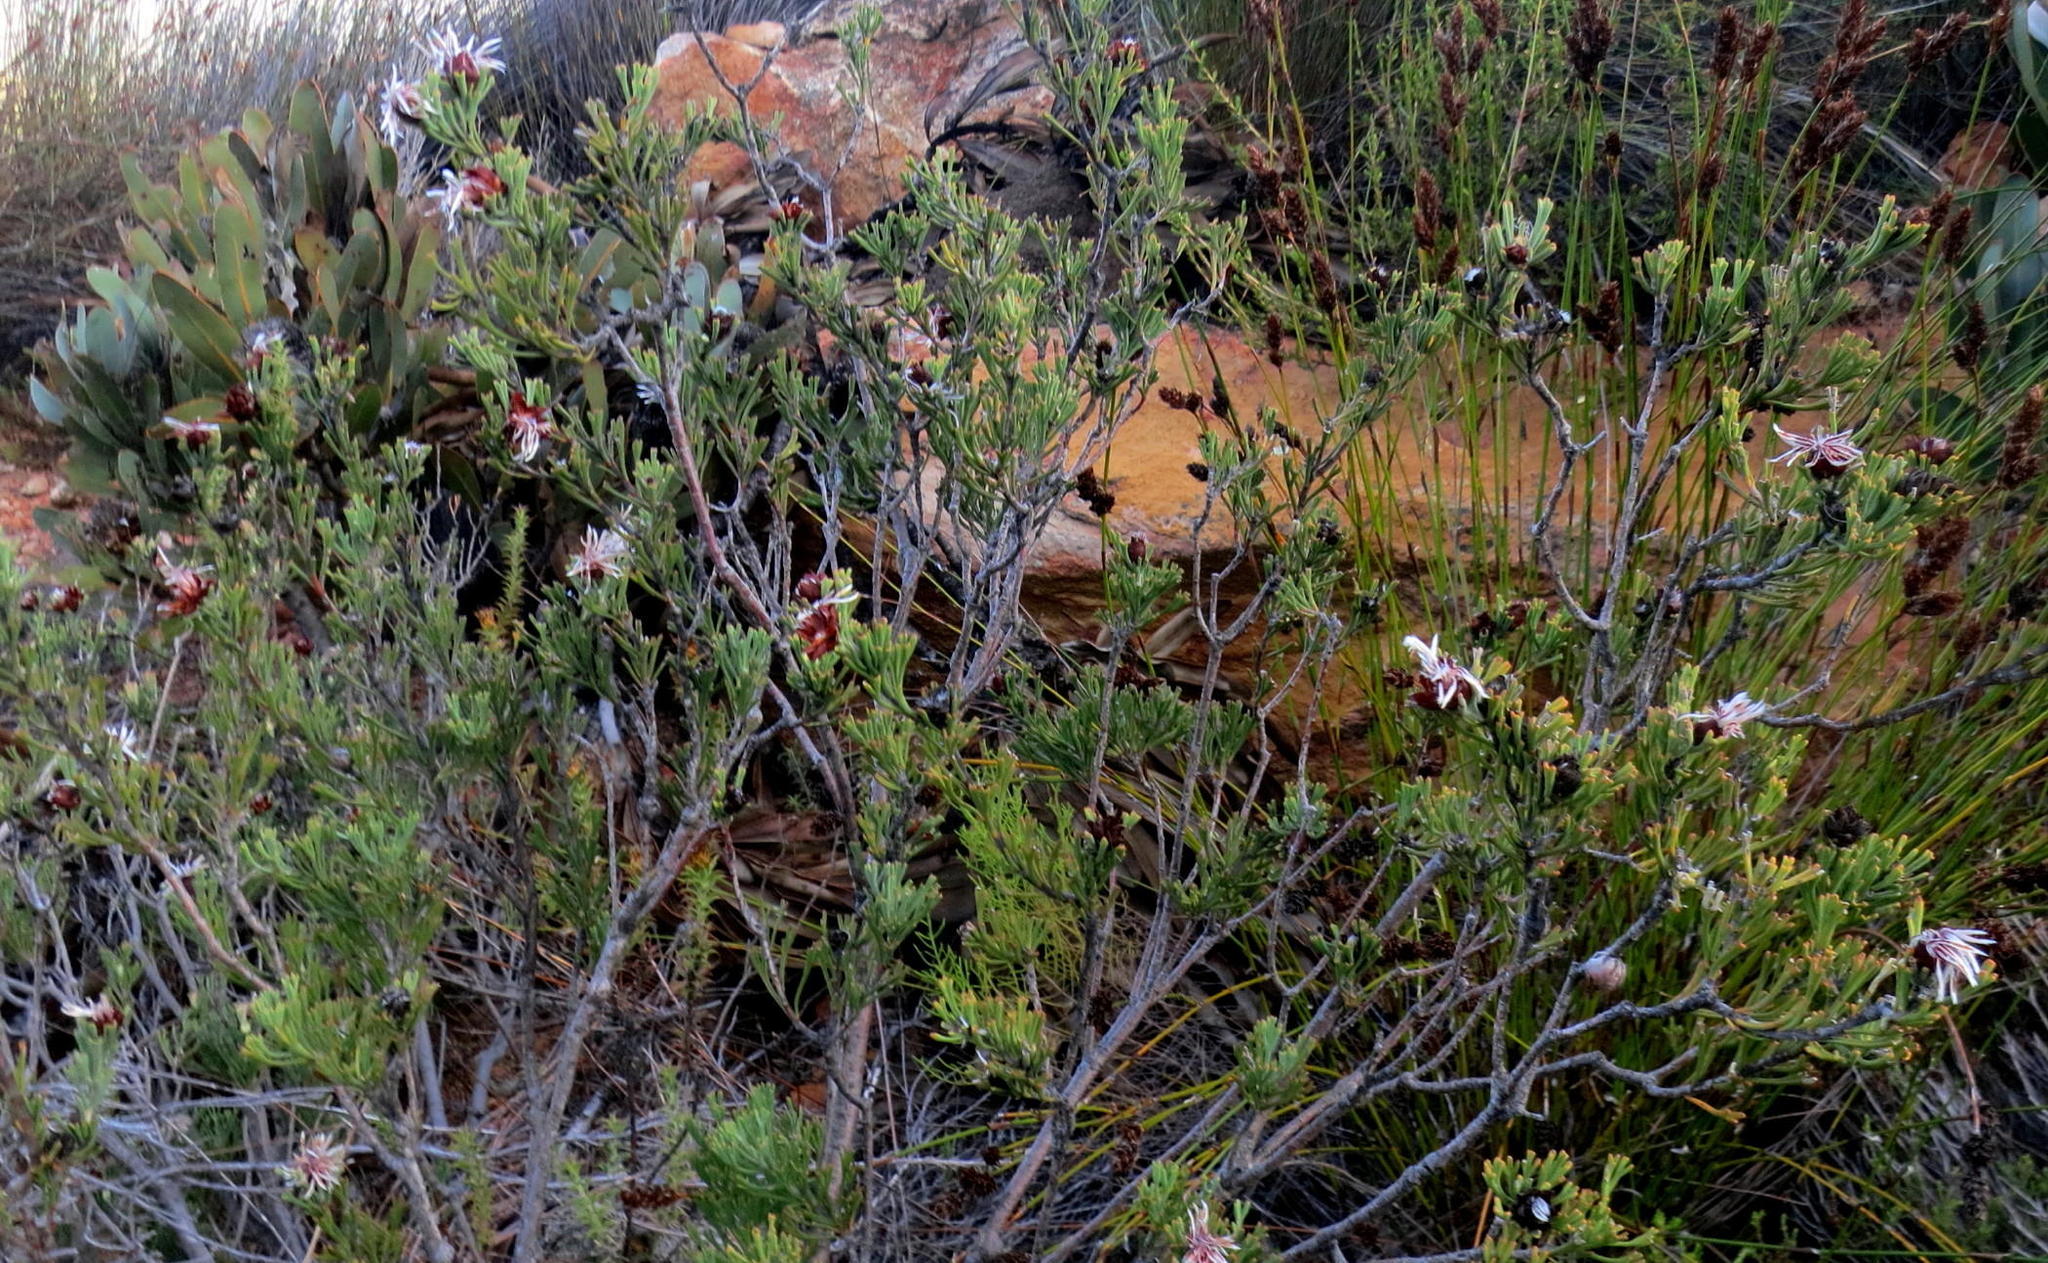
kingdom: Plantae
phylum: Tracheophyta
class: Magnoliopsida
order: Proteales
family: Proteaceae
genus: Paranomus
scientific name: Paranomus centaureoides
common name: Ladismith sceptre
